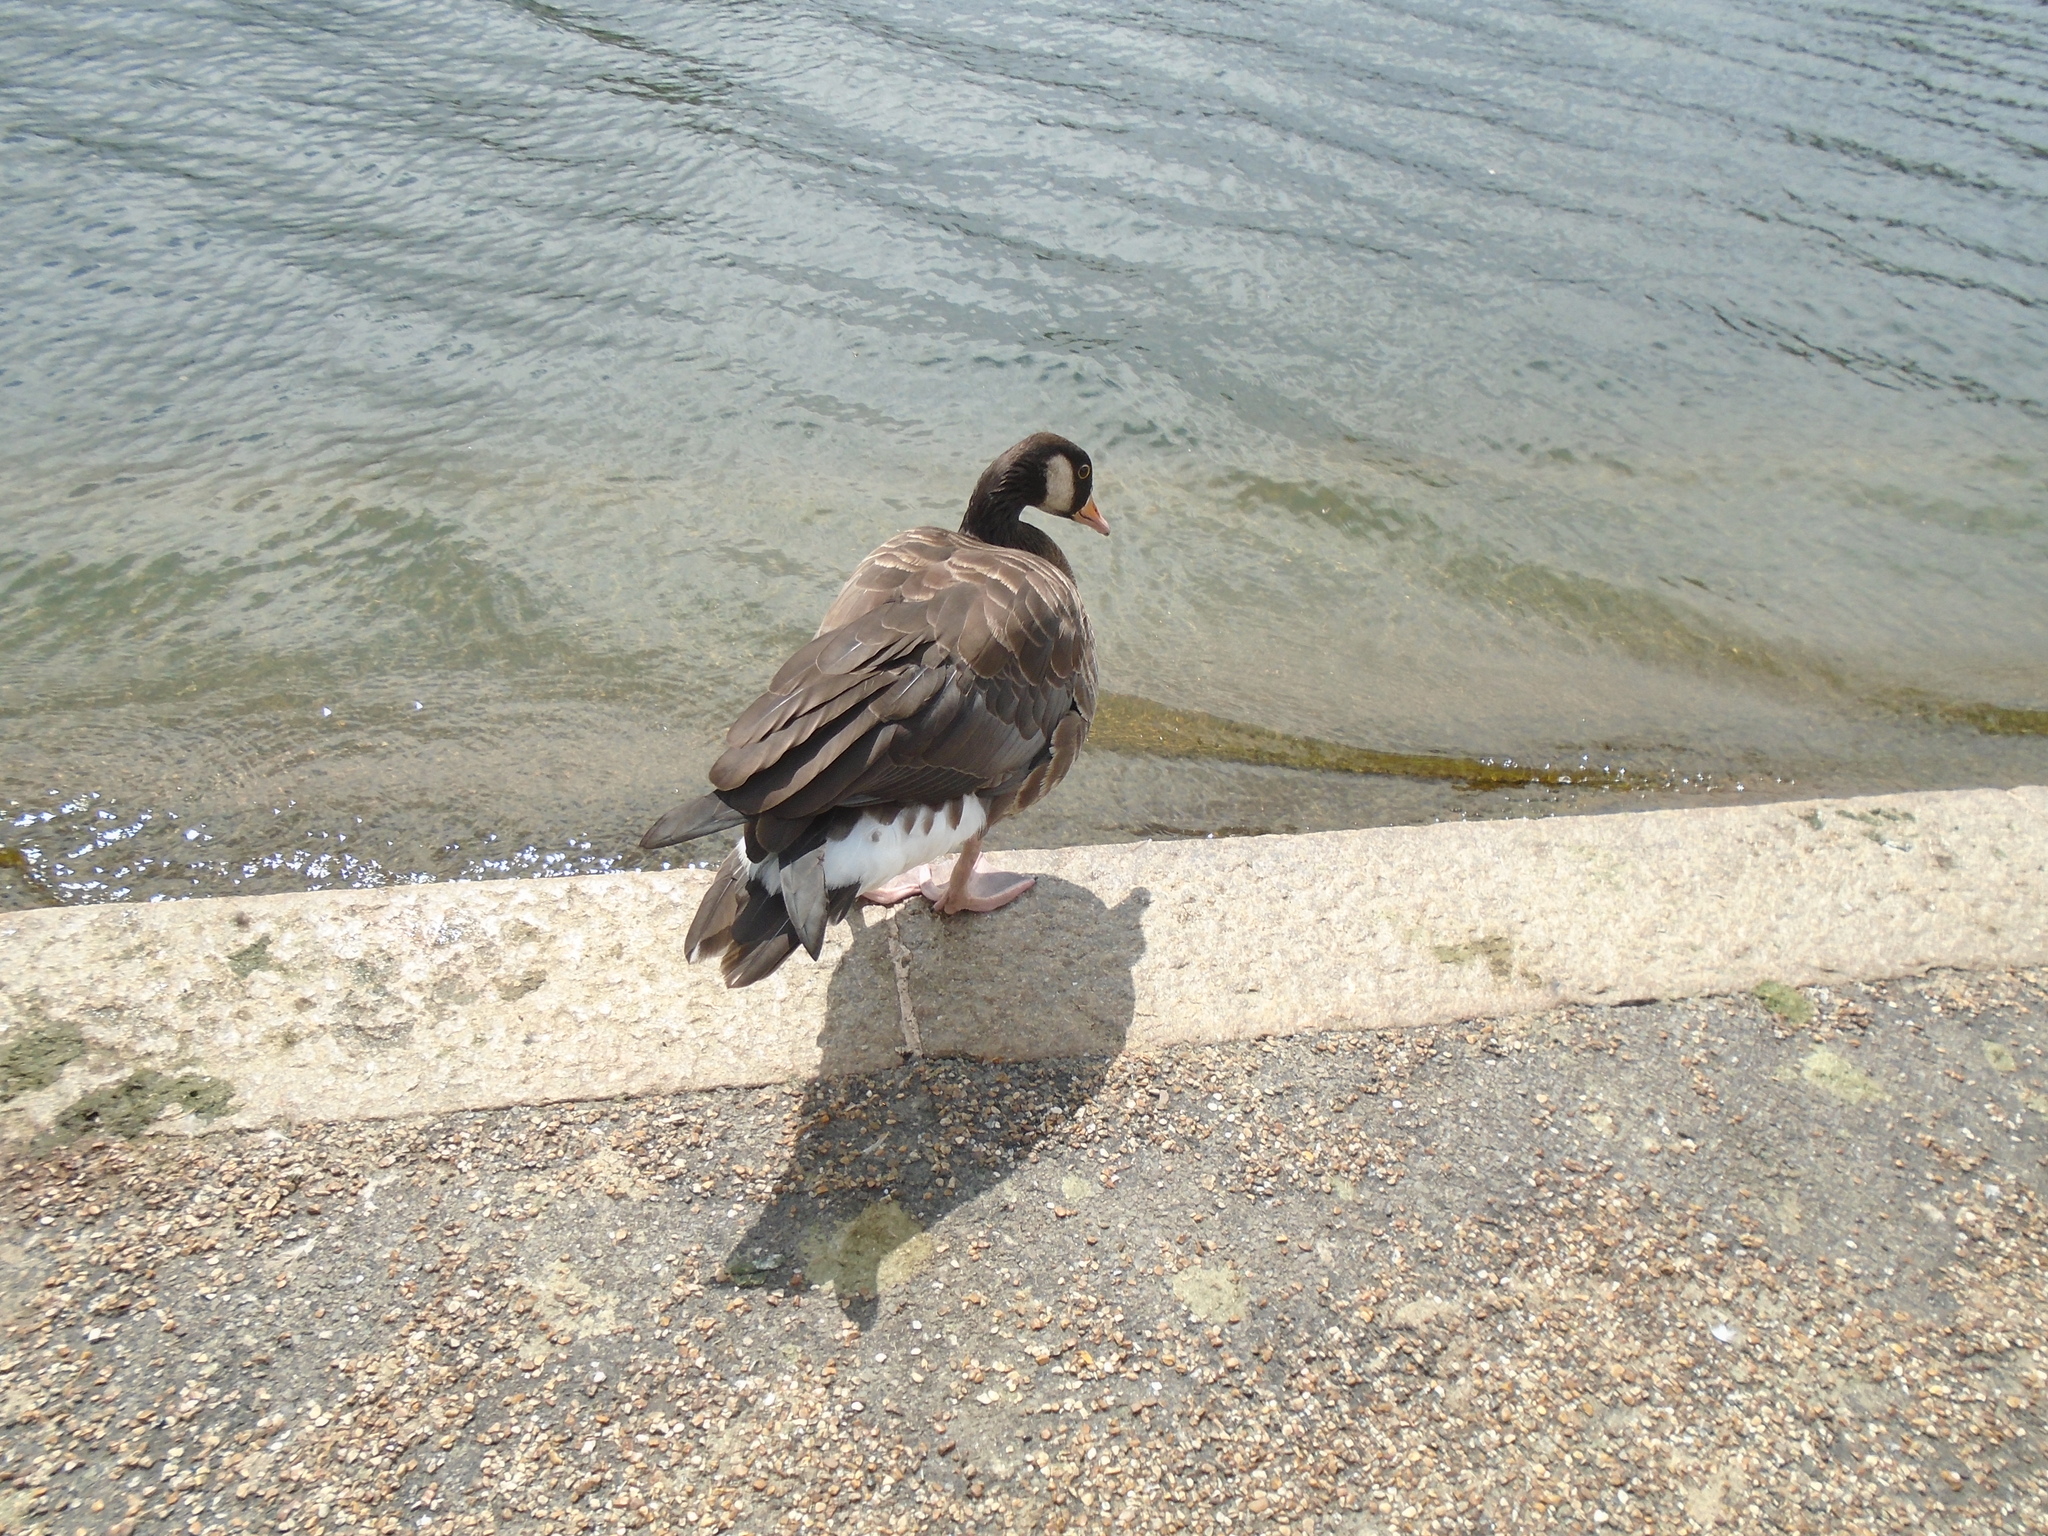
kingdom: Animalia
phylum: Chordata
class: Aves
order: Anseriformes
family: Anatidae
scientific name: Anatidae
